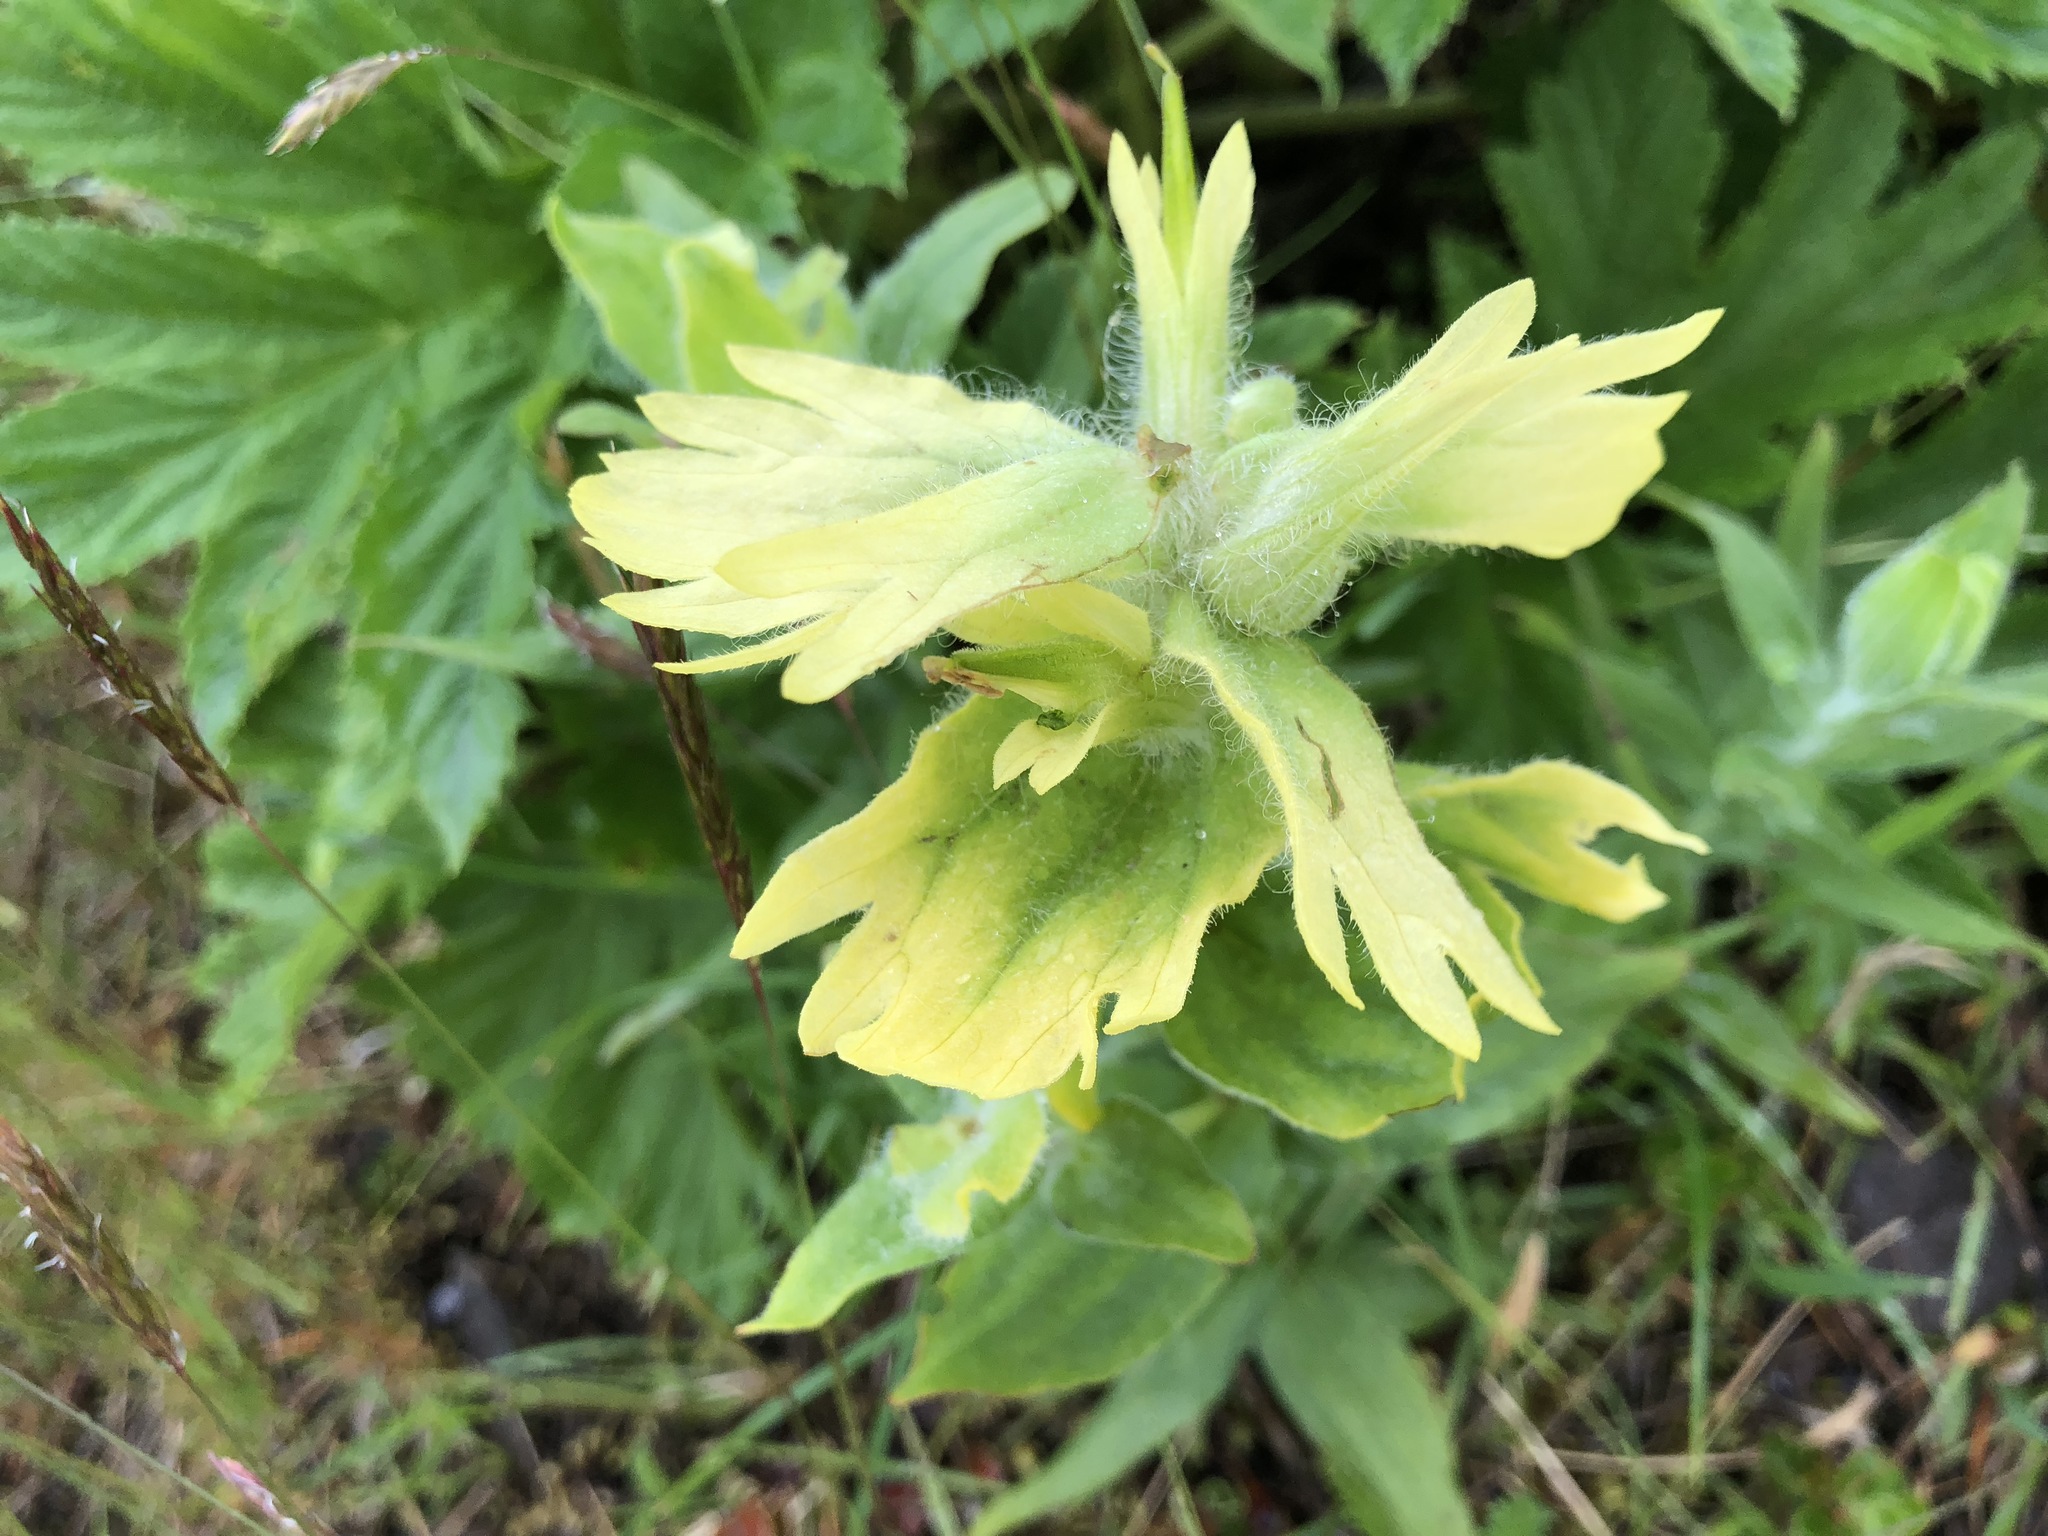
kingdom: Plantae
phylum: Tracheophyta
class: Magnoliopsida
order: Lamiales
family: Orobanchaceae
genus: Castilleja
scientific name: Castilleja unalaschcensis
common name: Unalaska paintbrush
